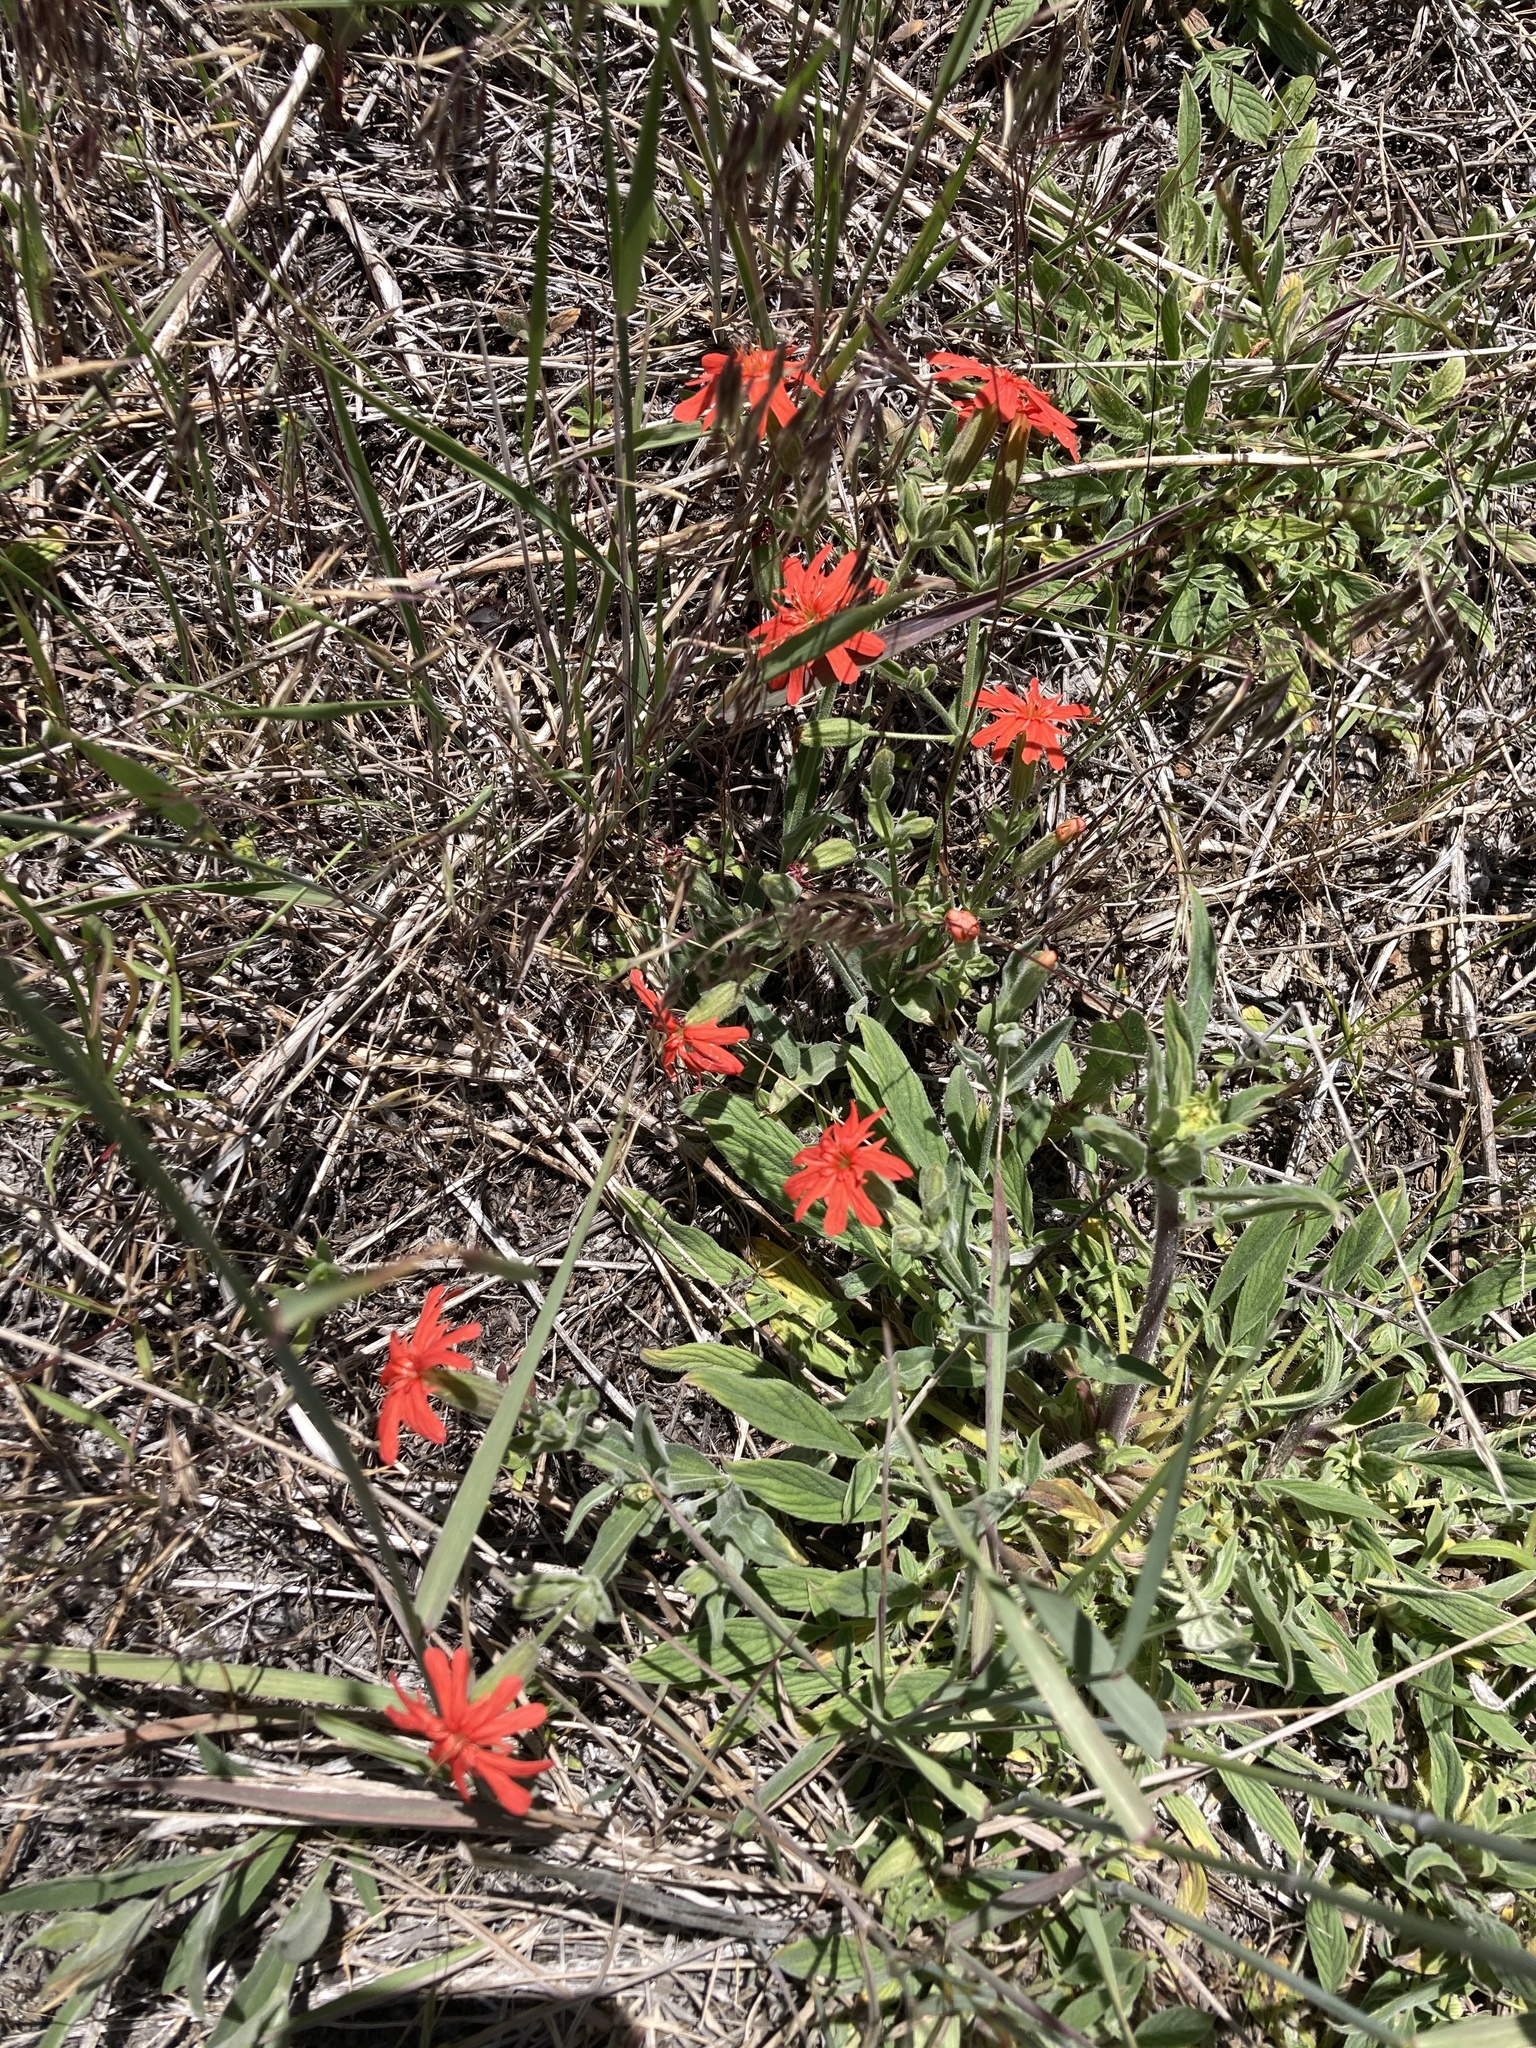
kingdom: Plantae
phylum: Tracheophyta
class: Magnoliopsida
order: Caryophyllales
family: Caryophyllaceae
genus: Silene
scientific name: Silene laciniata
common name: Indian-pink
